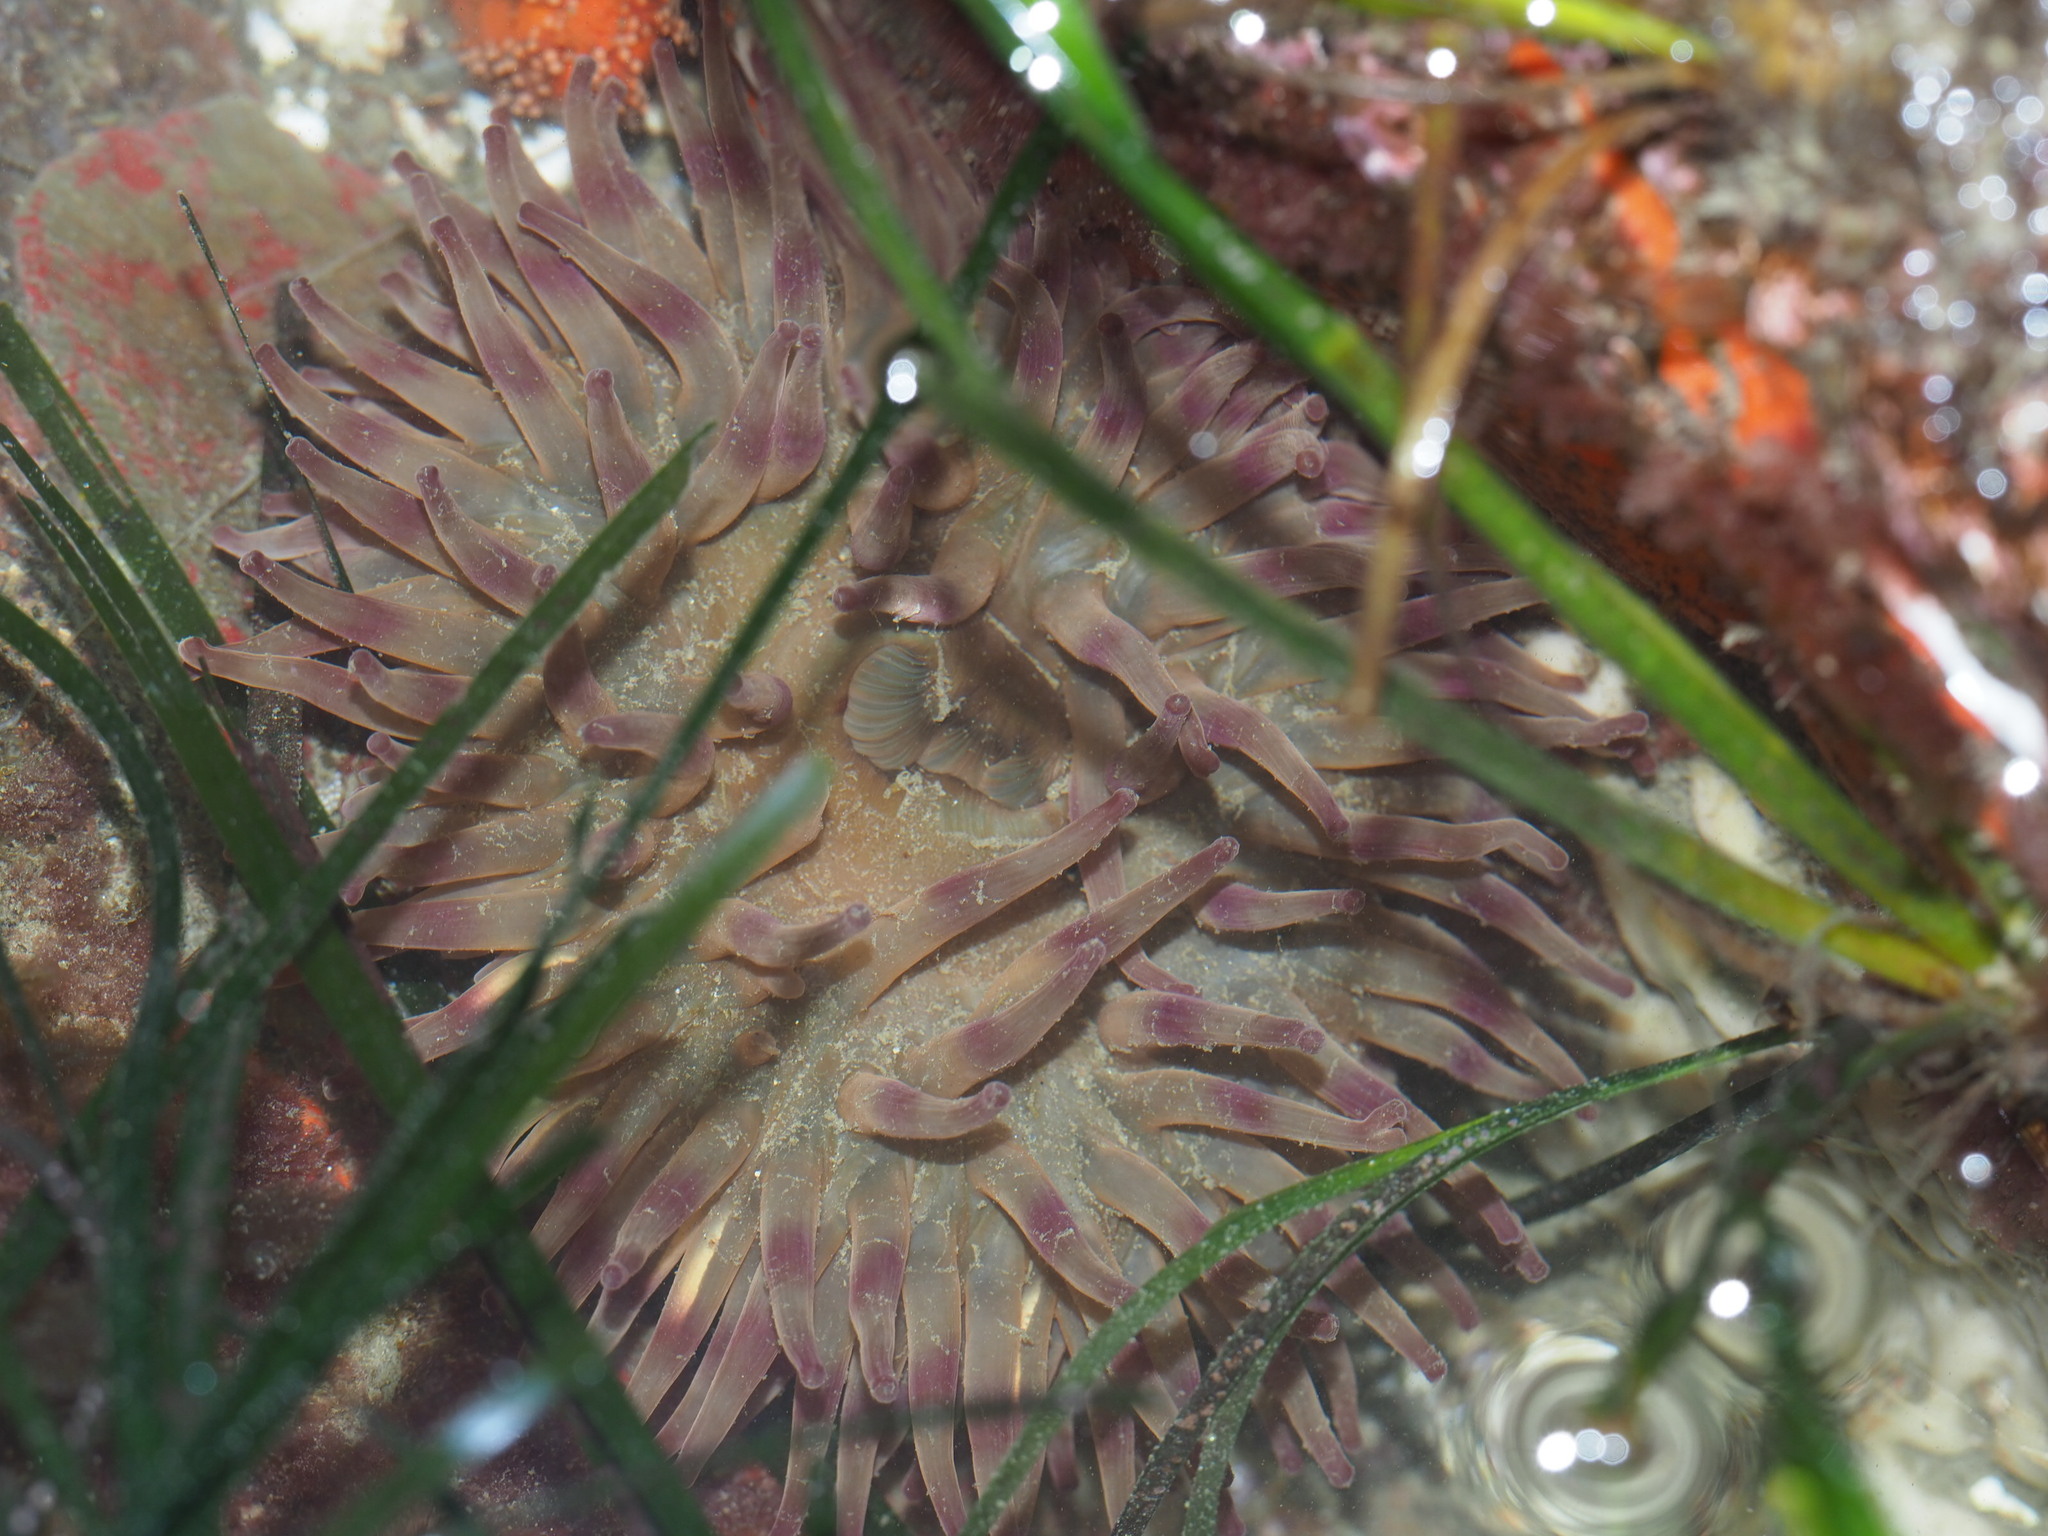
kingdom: Animalia
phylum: Cnidaria
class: Anthozoa
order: Actiniaria
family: Actiniidae
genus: Urticina
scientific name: Urticina grebelnyi
